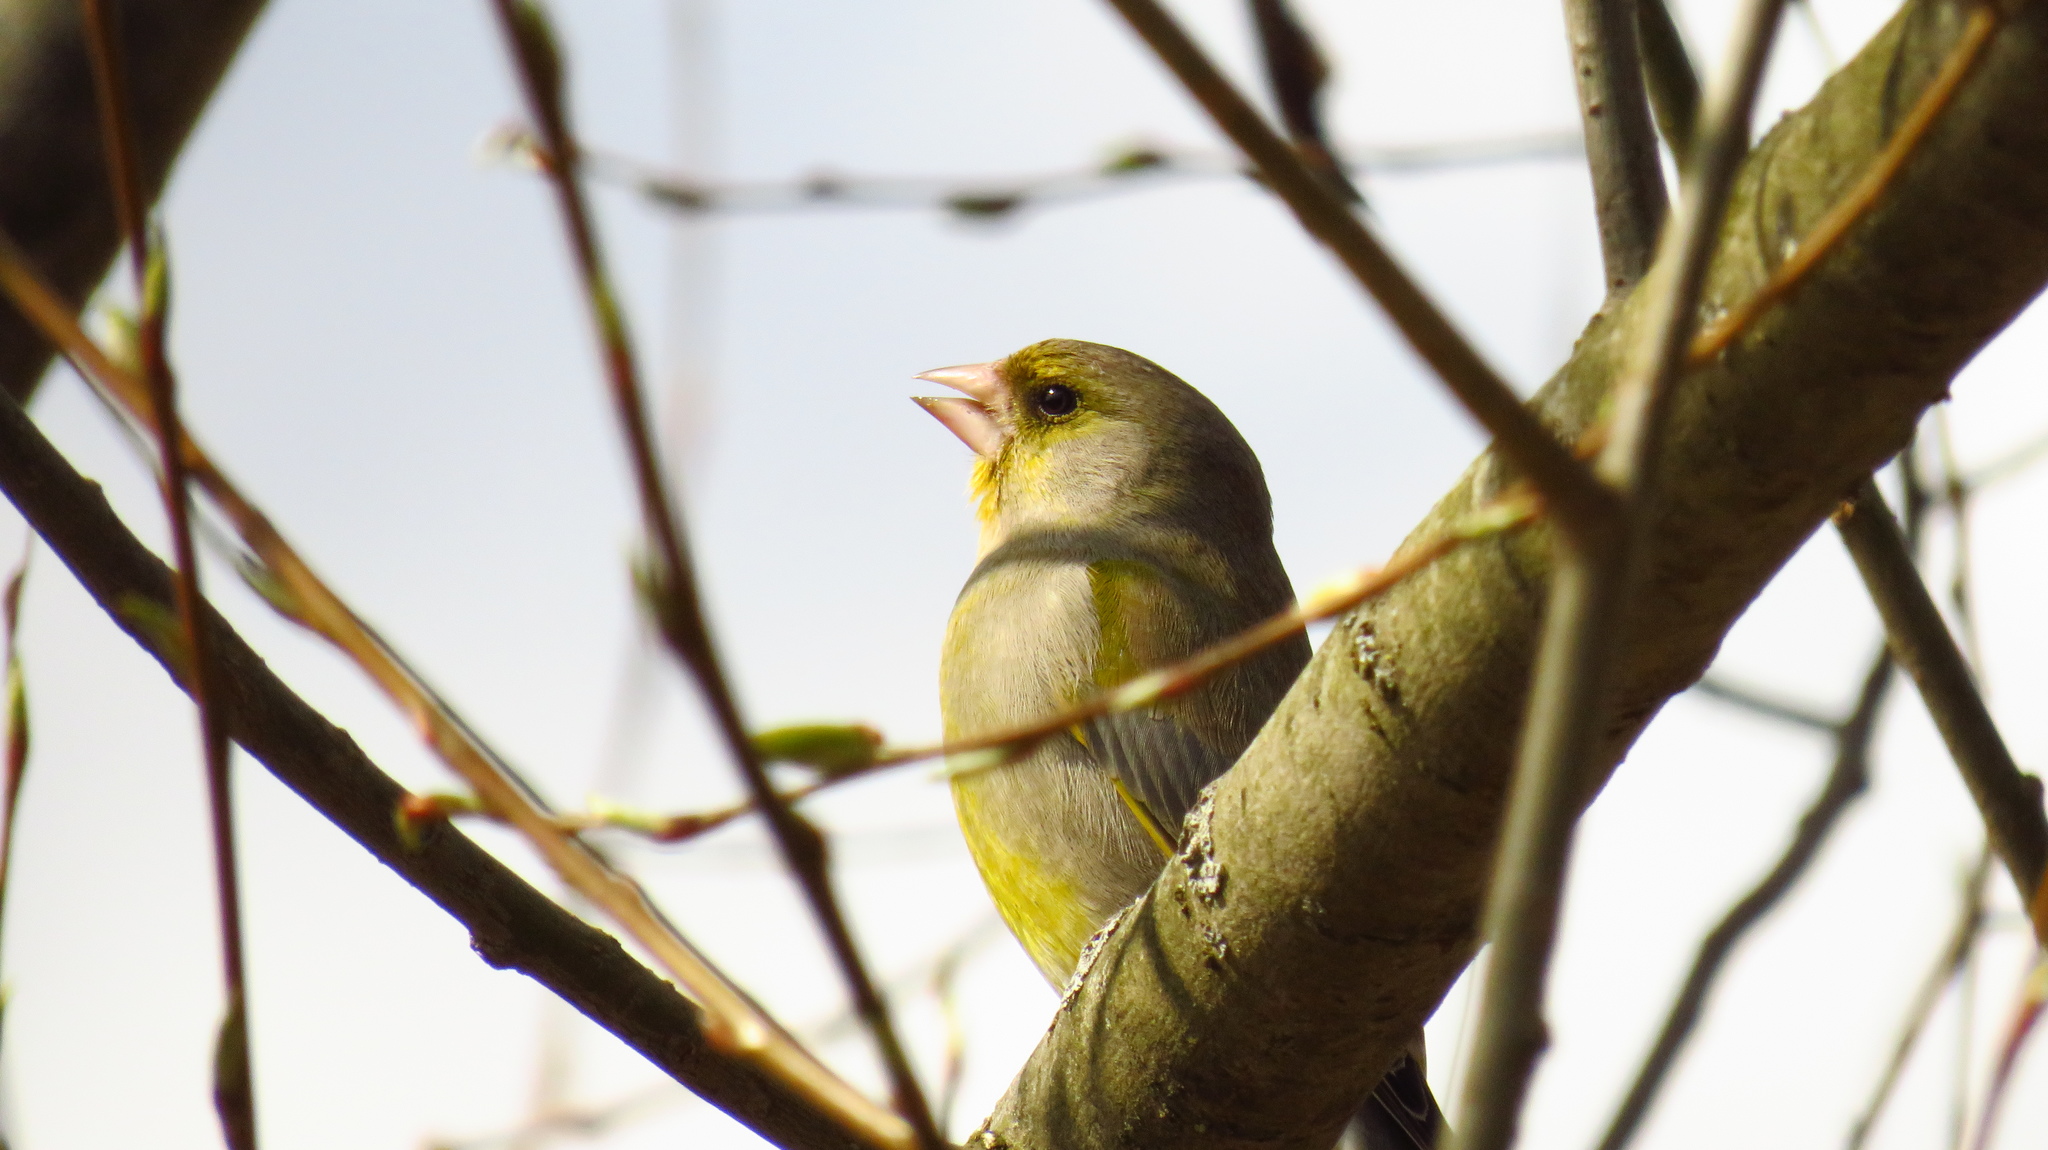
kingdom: Plantae
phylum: Tracheophyta
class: Liliopsida
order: Poales
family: Poaceae
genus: Chloris
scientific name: Chloris chloris
